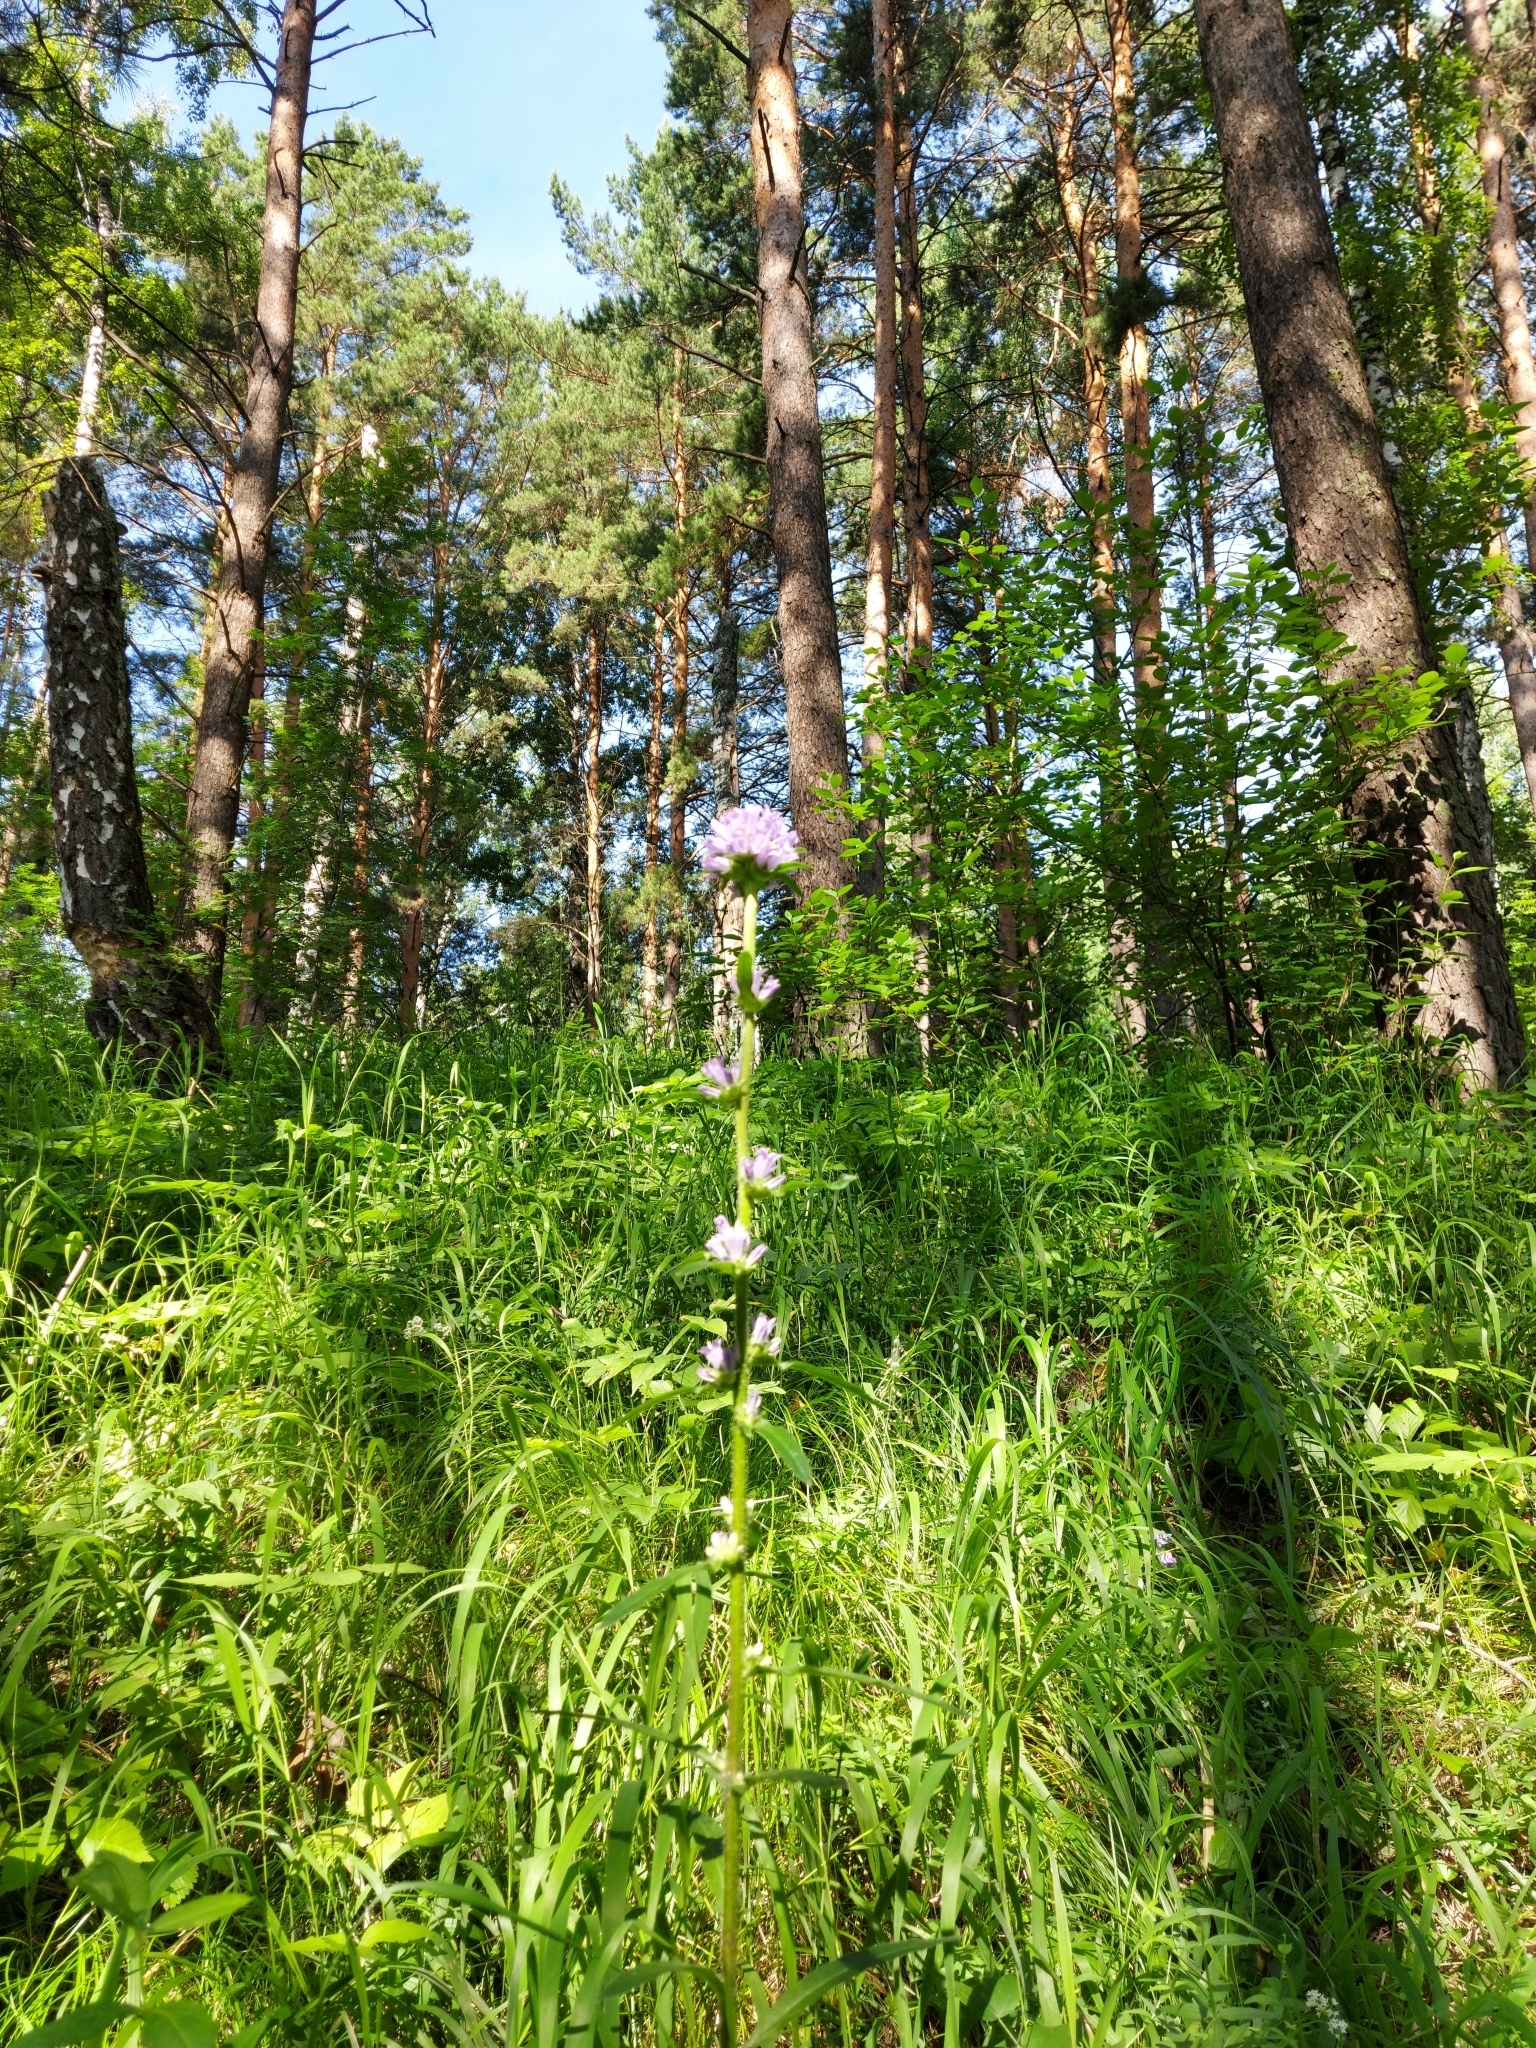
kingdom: Plantae
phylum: Tracheophyta
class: Magnoliopsida
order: Asterales
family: Campanulaceae
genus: Campanula
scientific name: Campanula cervicaria
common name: Bristly bellflower
